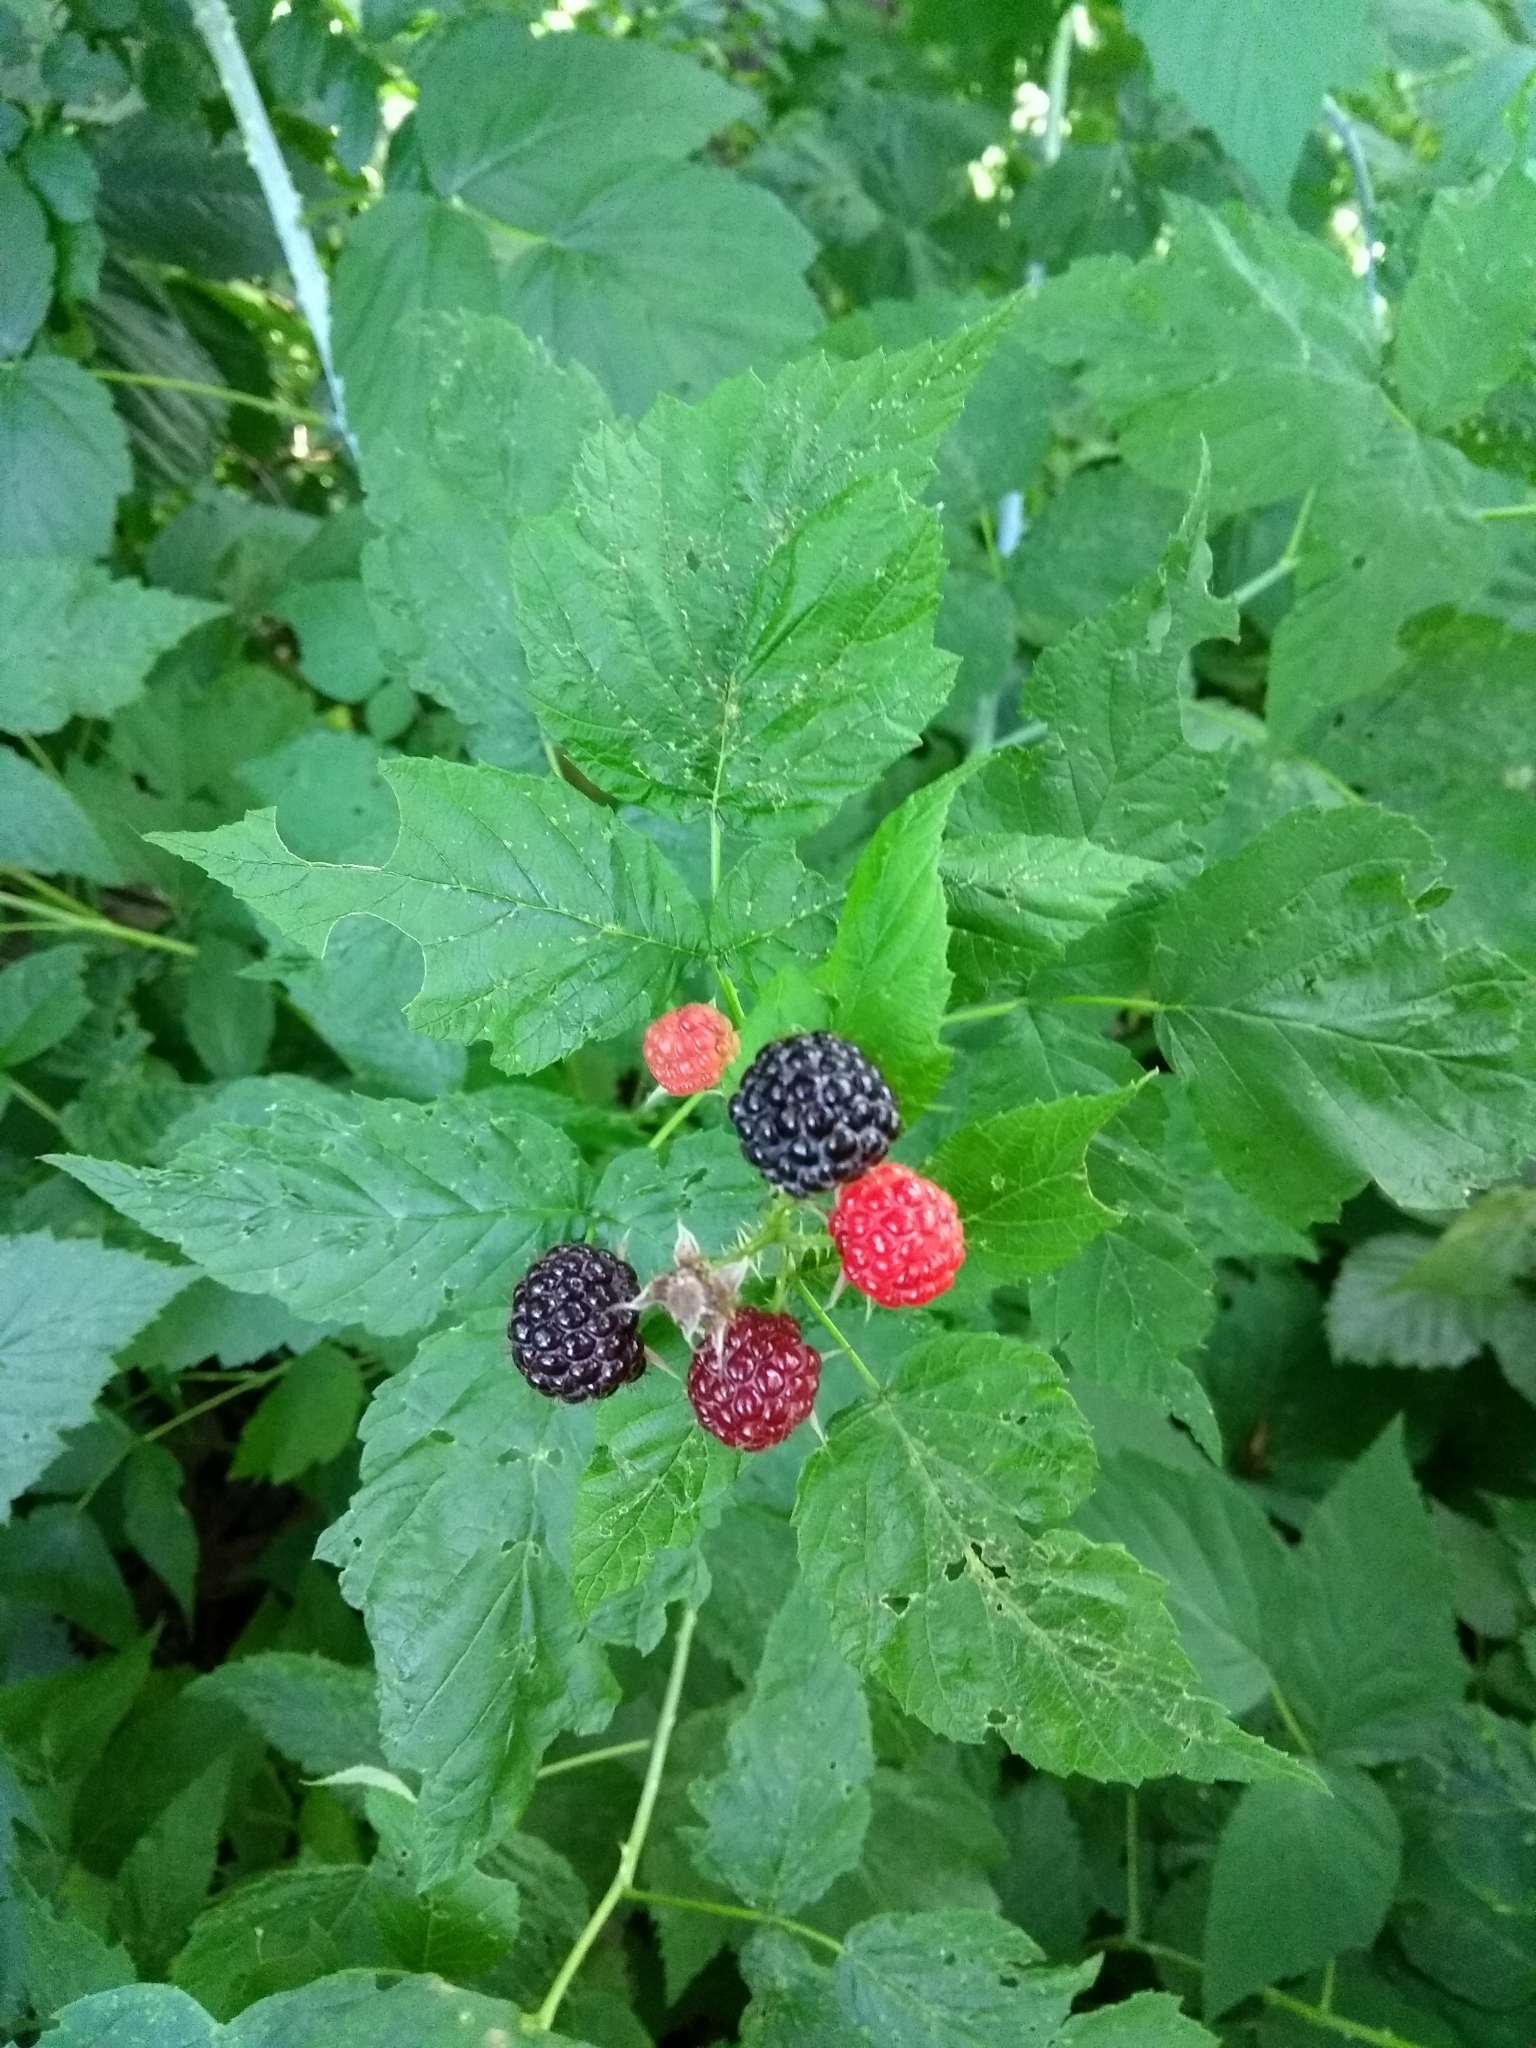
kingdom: Plantae
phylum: Tracheophyta
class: Magnoliopsida
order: Rosales
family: Rosaceae
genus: Rubus
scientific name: Rubus occidentalis
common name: Black raspberry
